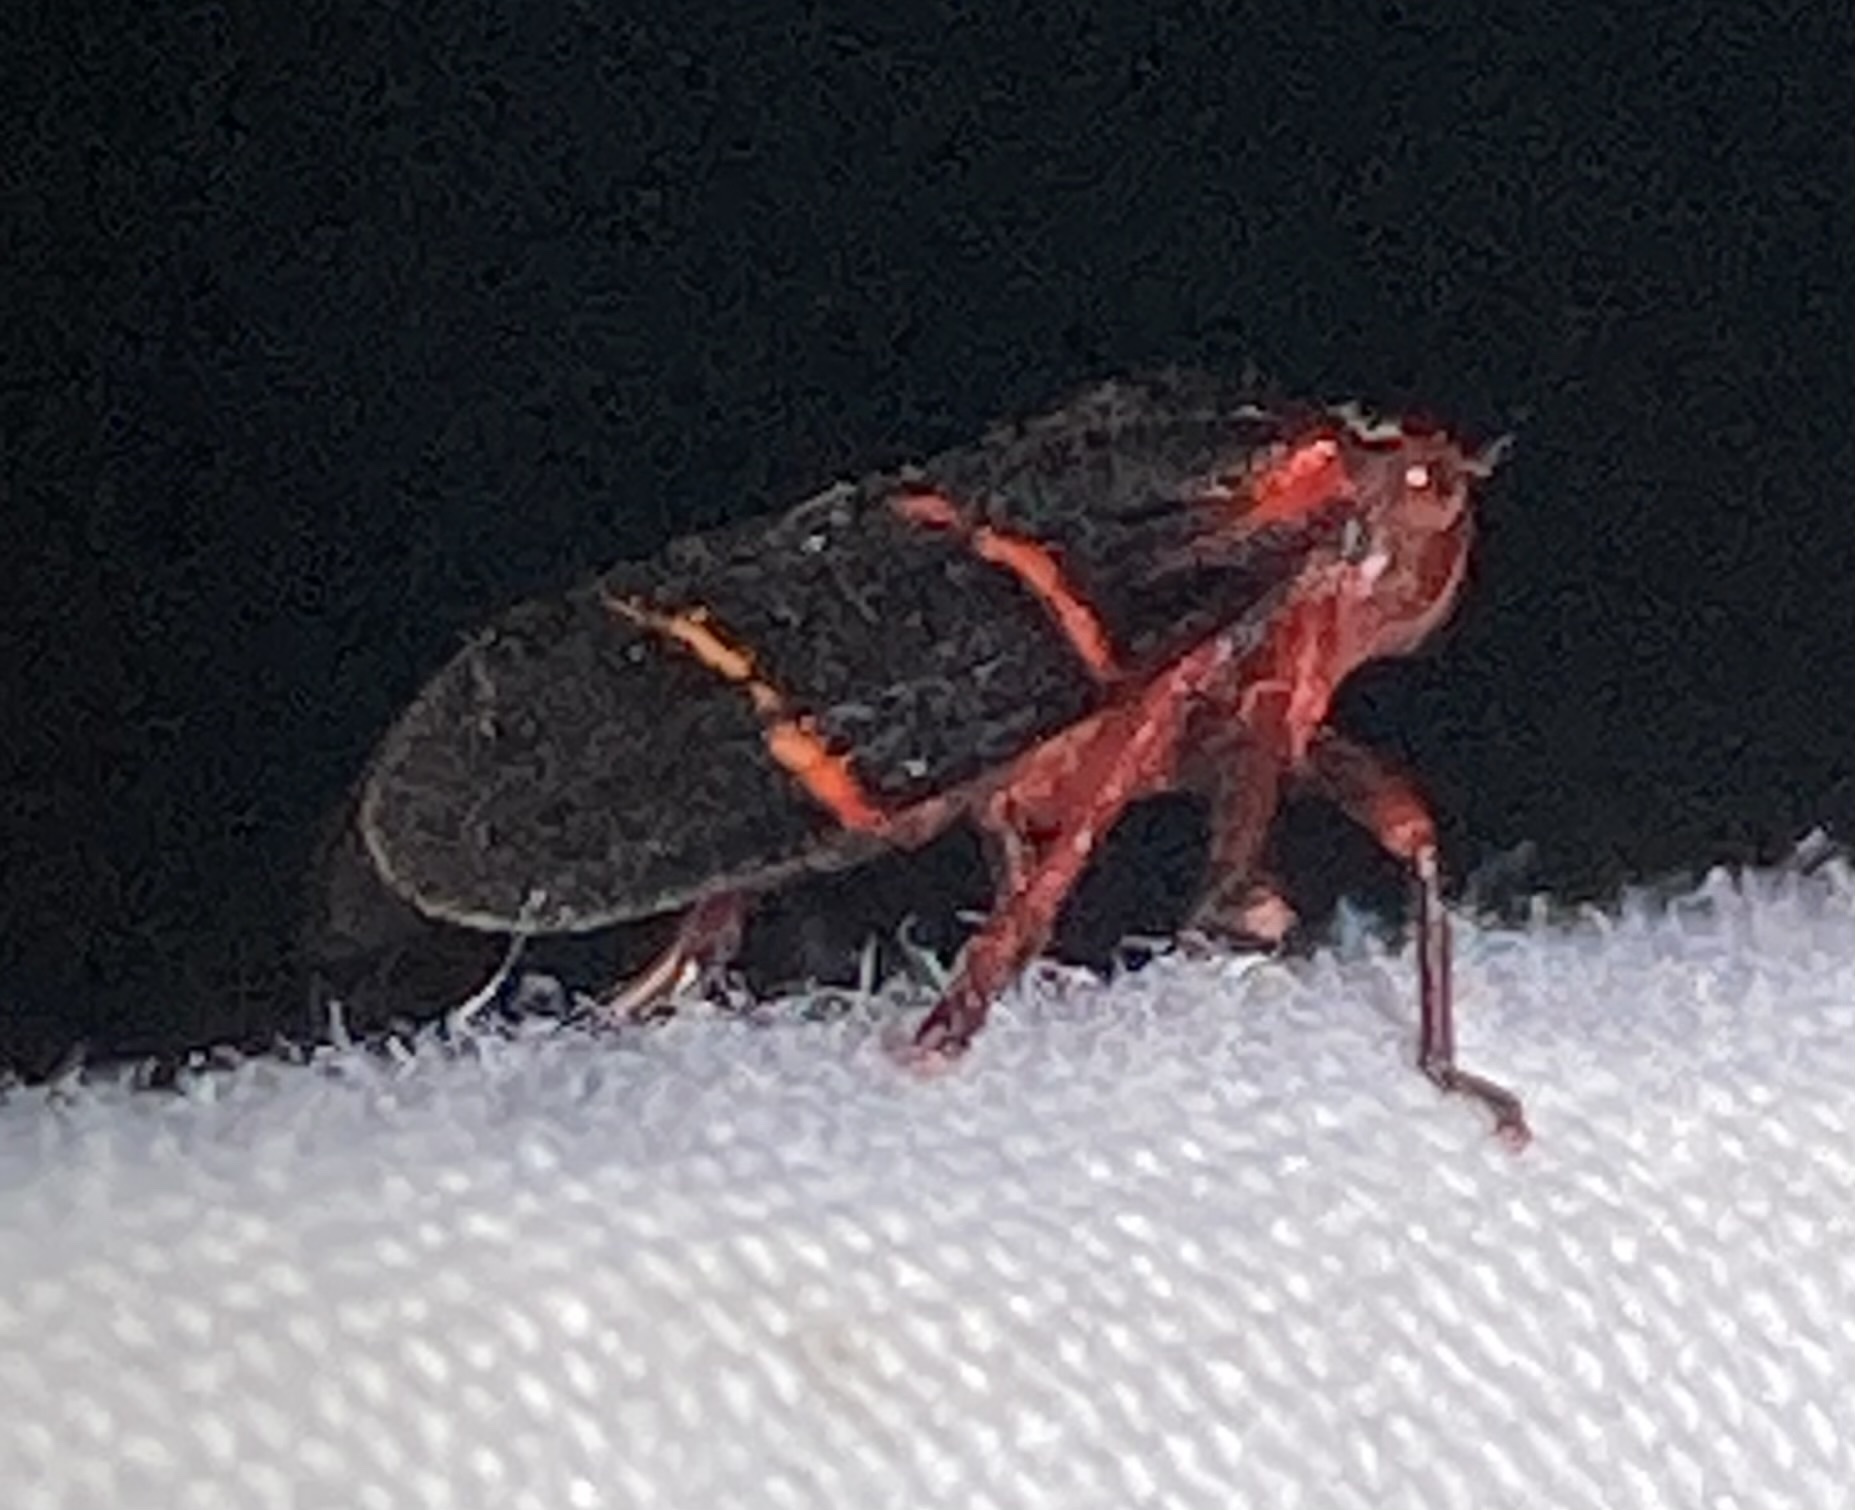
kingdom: Animalia
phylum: Arthropoda
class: Insecta
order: Hemiptera
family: Cercopidae
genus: Prosapia
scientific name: Prosapia bicincta
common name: Twolined spittlebug
